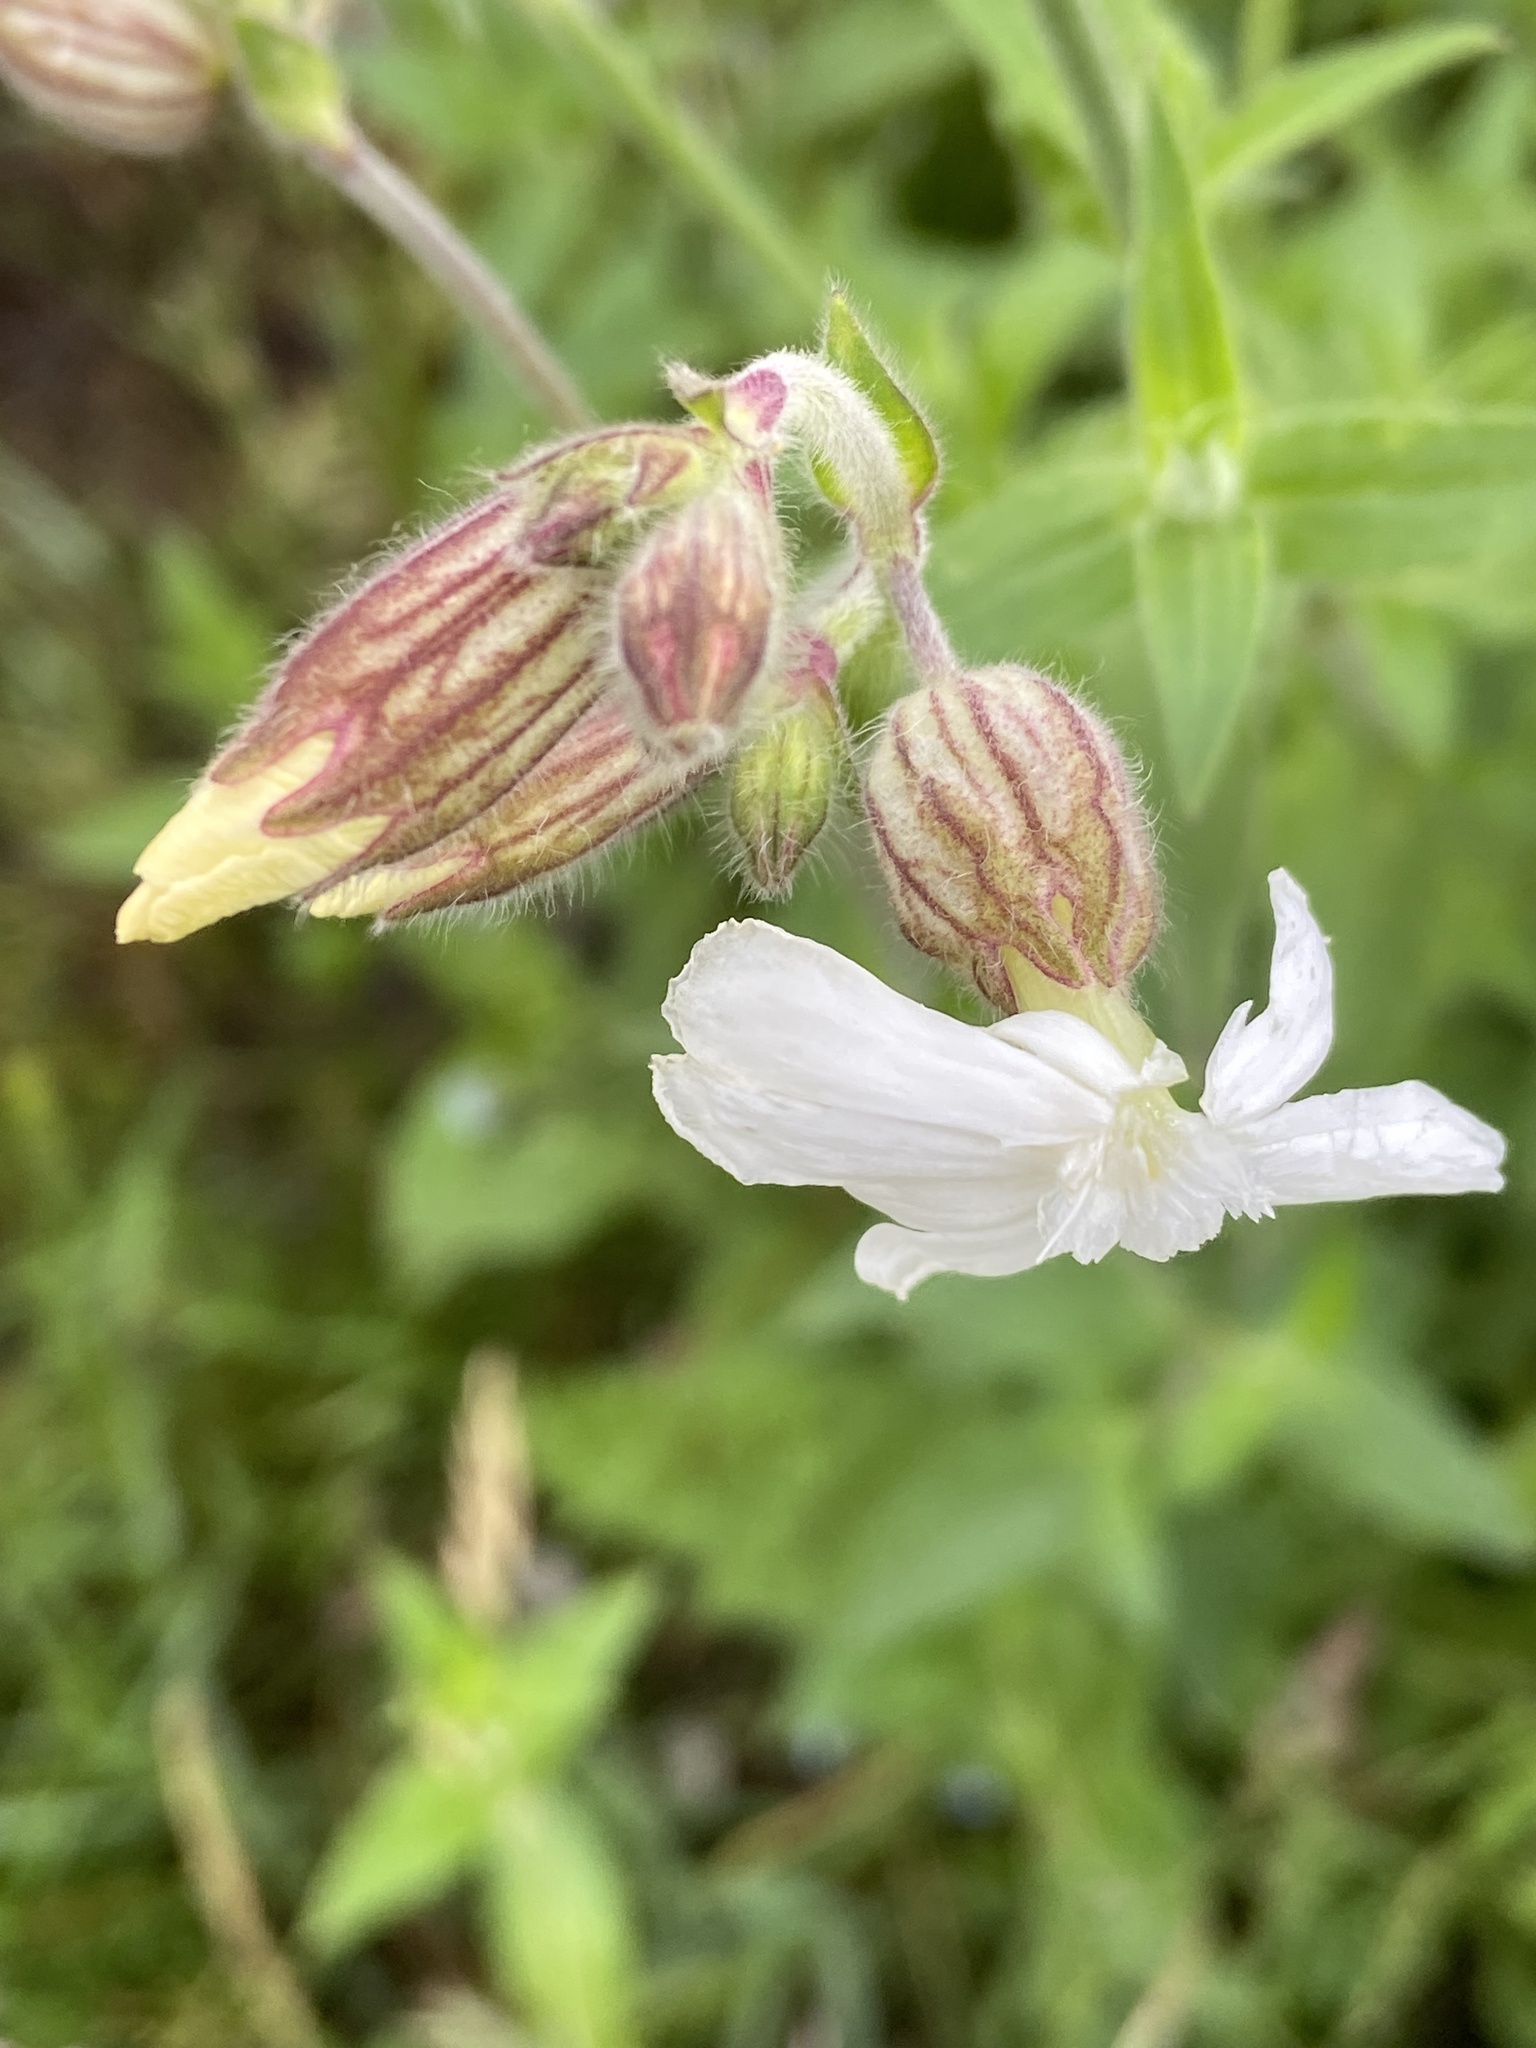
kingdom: Plantae
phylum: Tracheophyta
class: Magnoliopsida
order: Caryophyllales
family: Caryophyllaceae
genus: Silene
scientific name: Silene latifolia
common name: White campion
